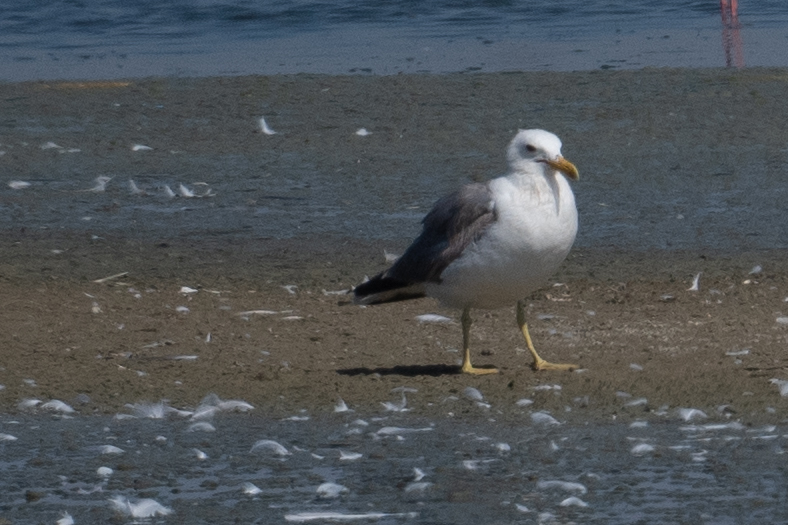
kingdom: Animalia
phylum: Chordata
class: Aves
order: Charadriiformes
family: Laridae
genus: Larus
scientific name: Larus californicus
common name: California gull
